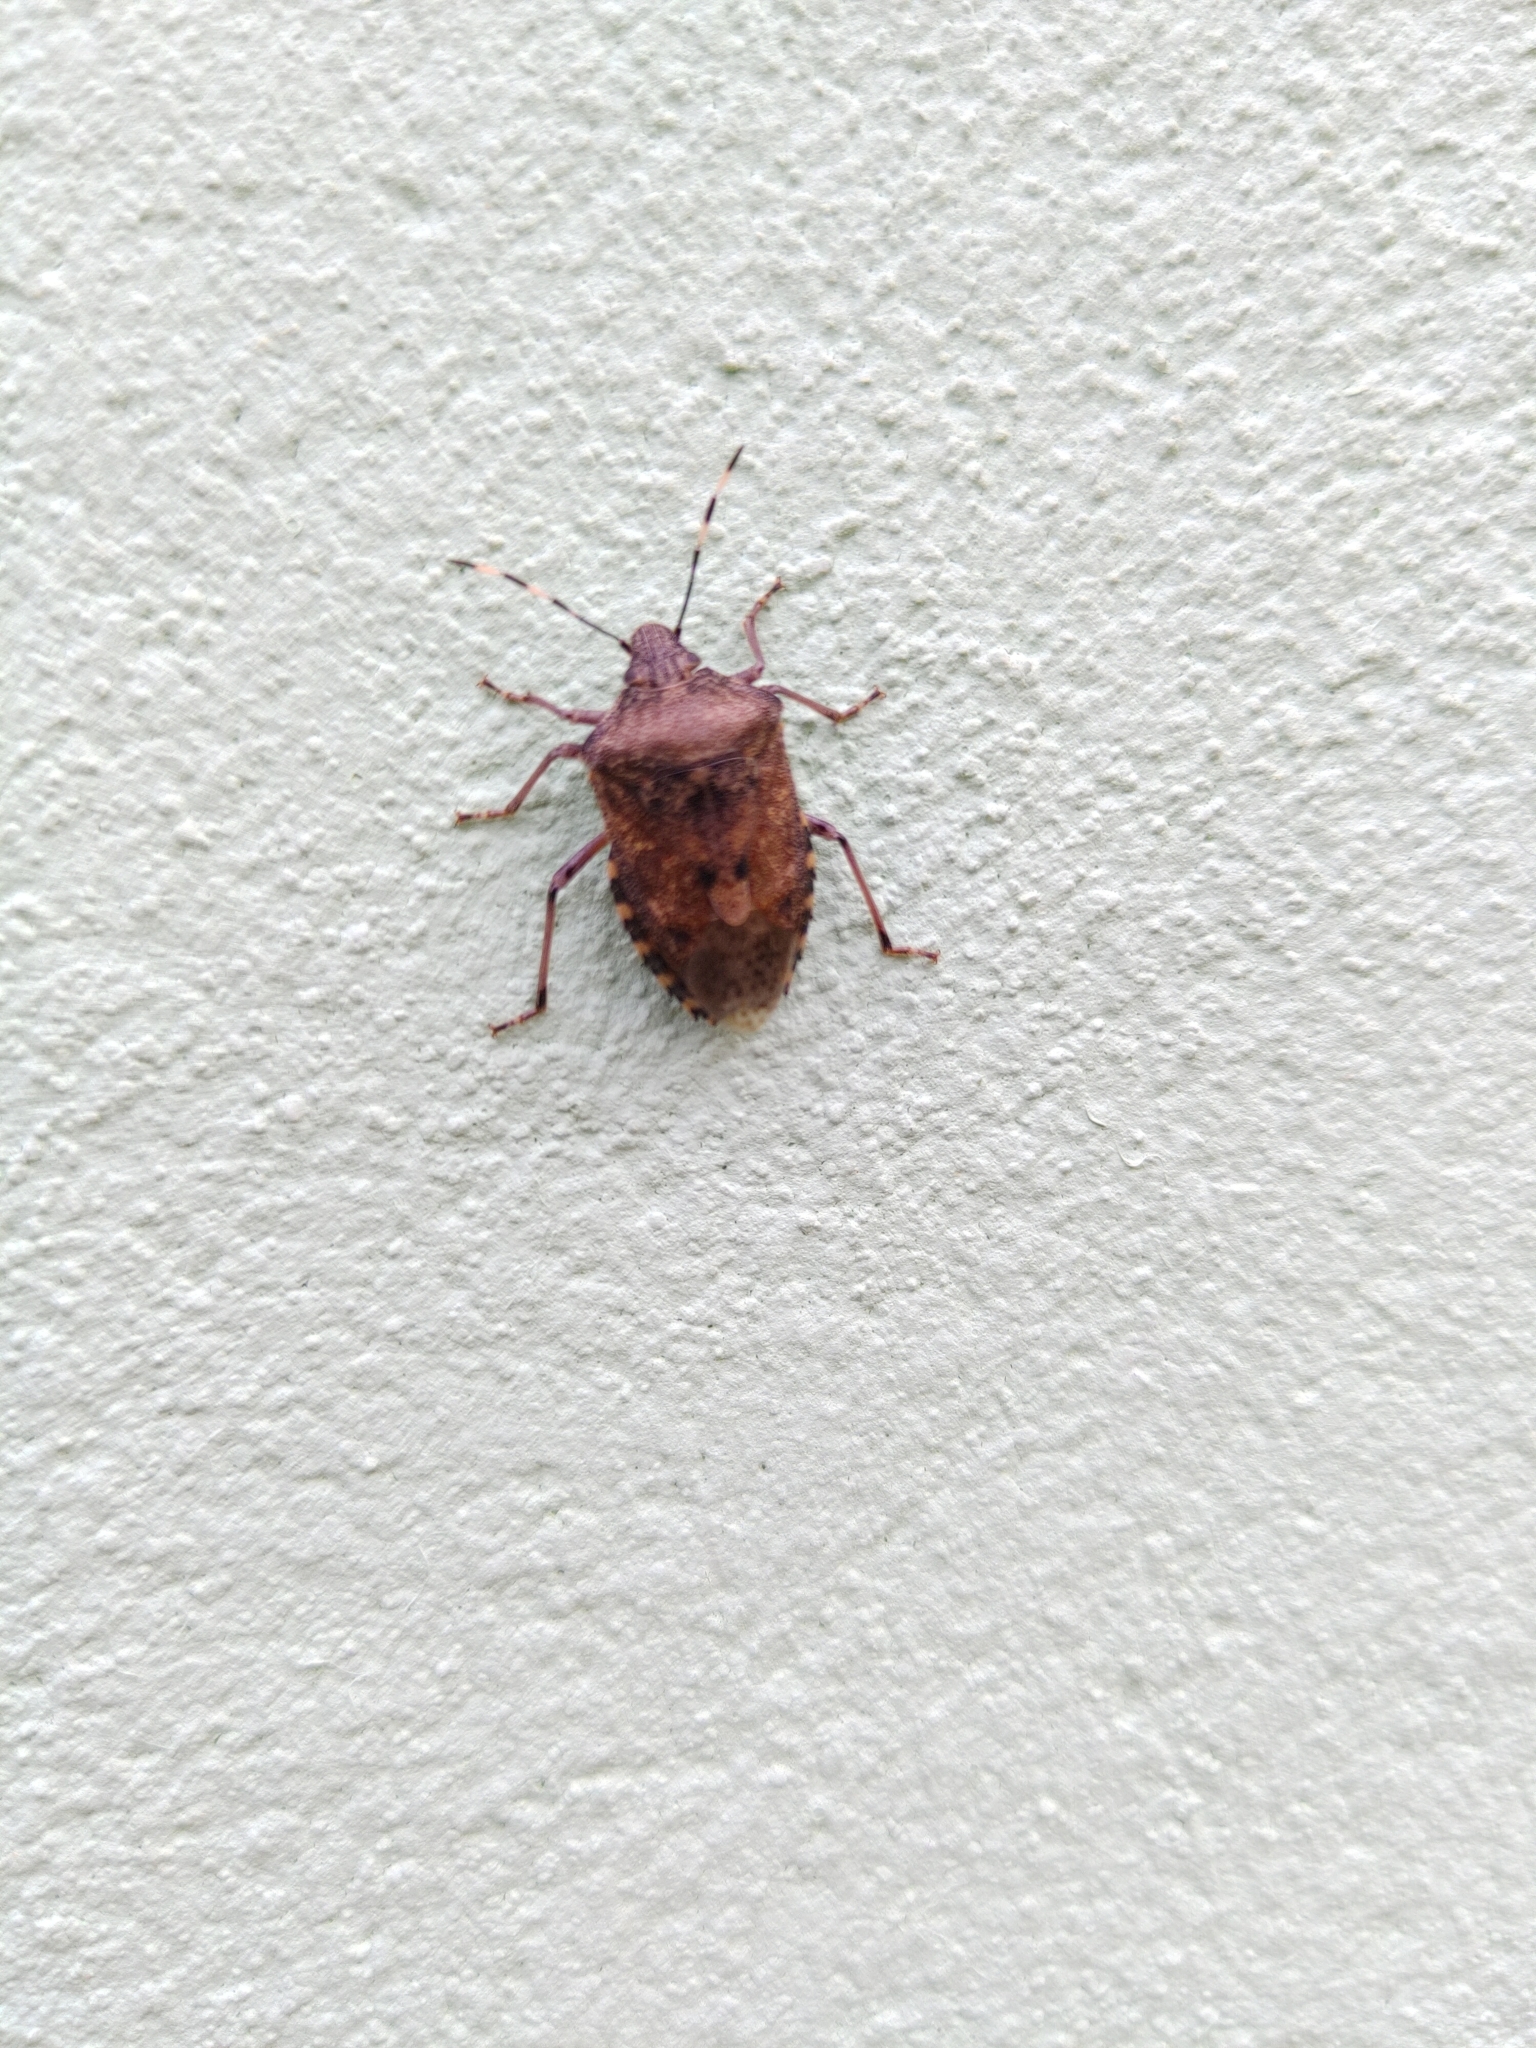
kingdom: Animalia
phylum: Arthropoda
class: Insecta
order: Hemiptera
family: Pentatomidae
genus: Rhaphigaster
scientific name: Rhaphigaster nebulosa
